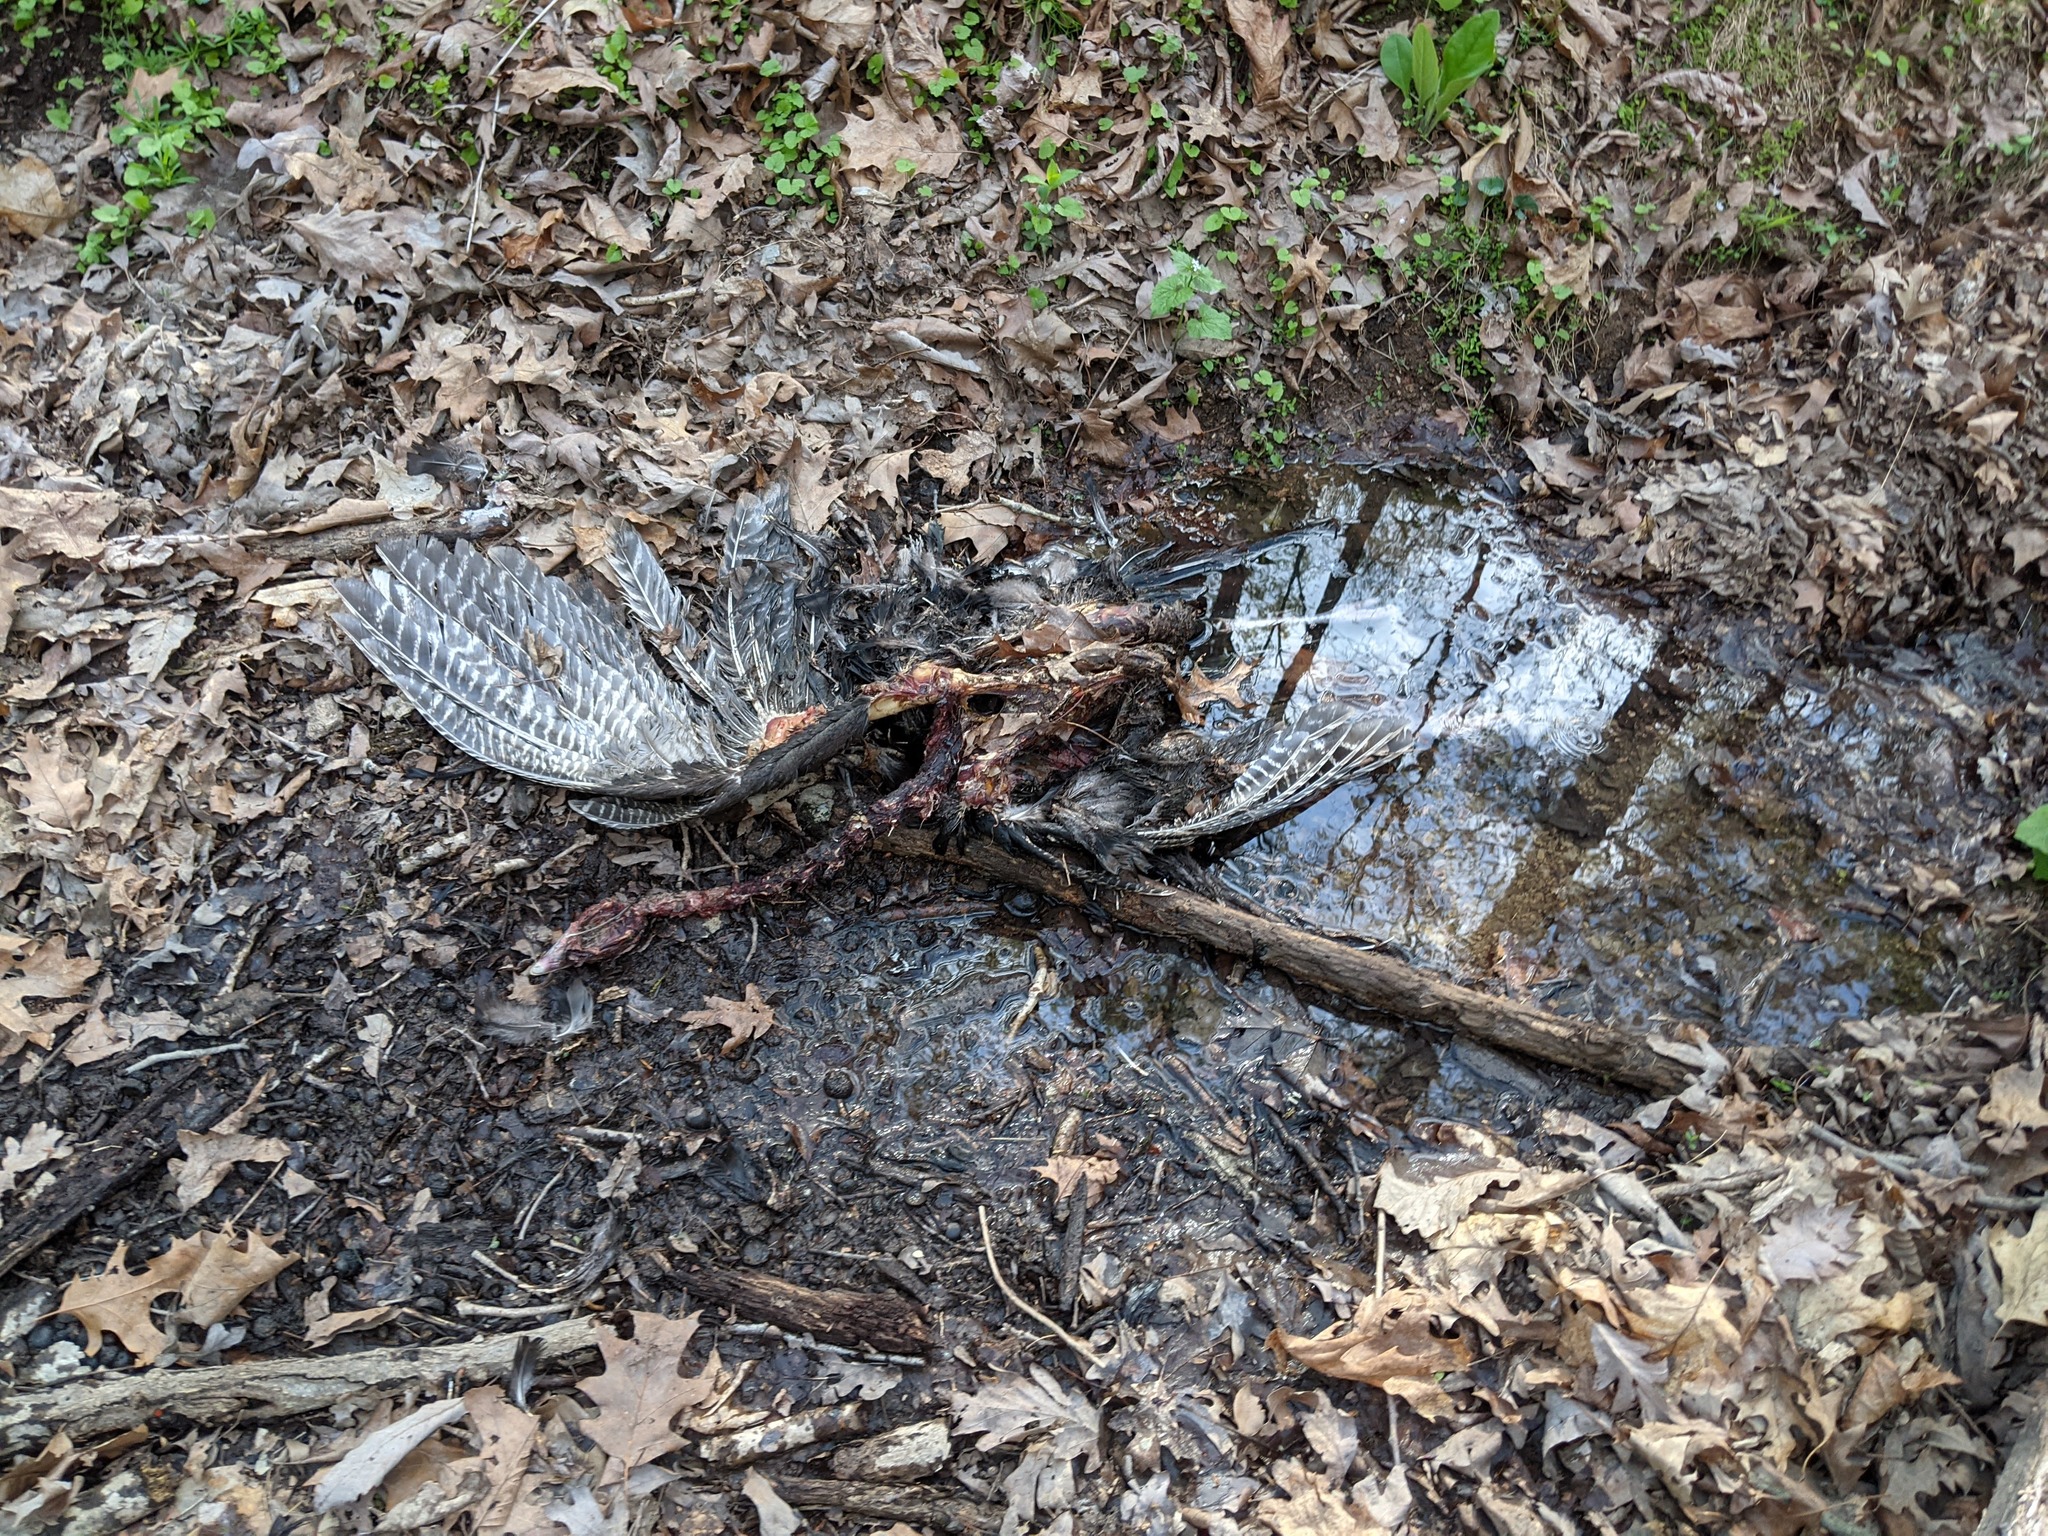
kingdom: Animalia
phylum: Chordata
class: Aves
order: Galliformes
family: Phasianidae
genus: Meleagris
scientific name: Meleagris gallopavo
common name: Wild turkey
